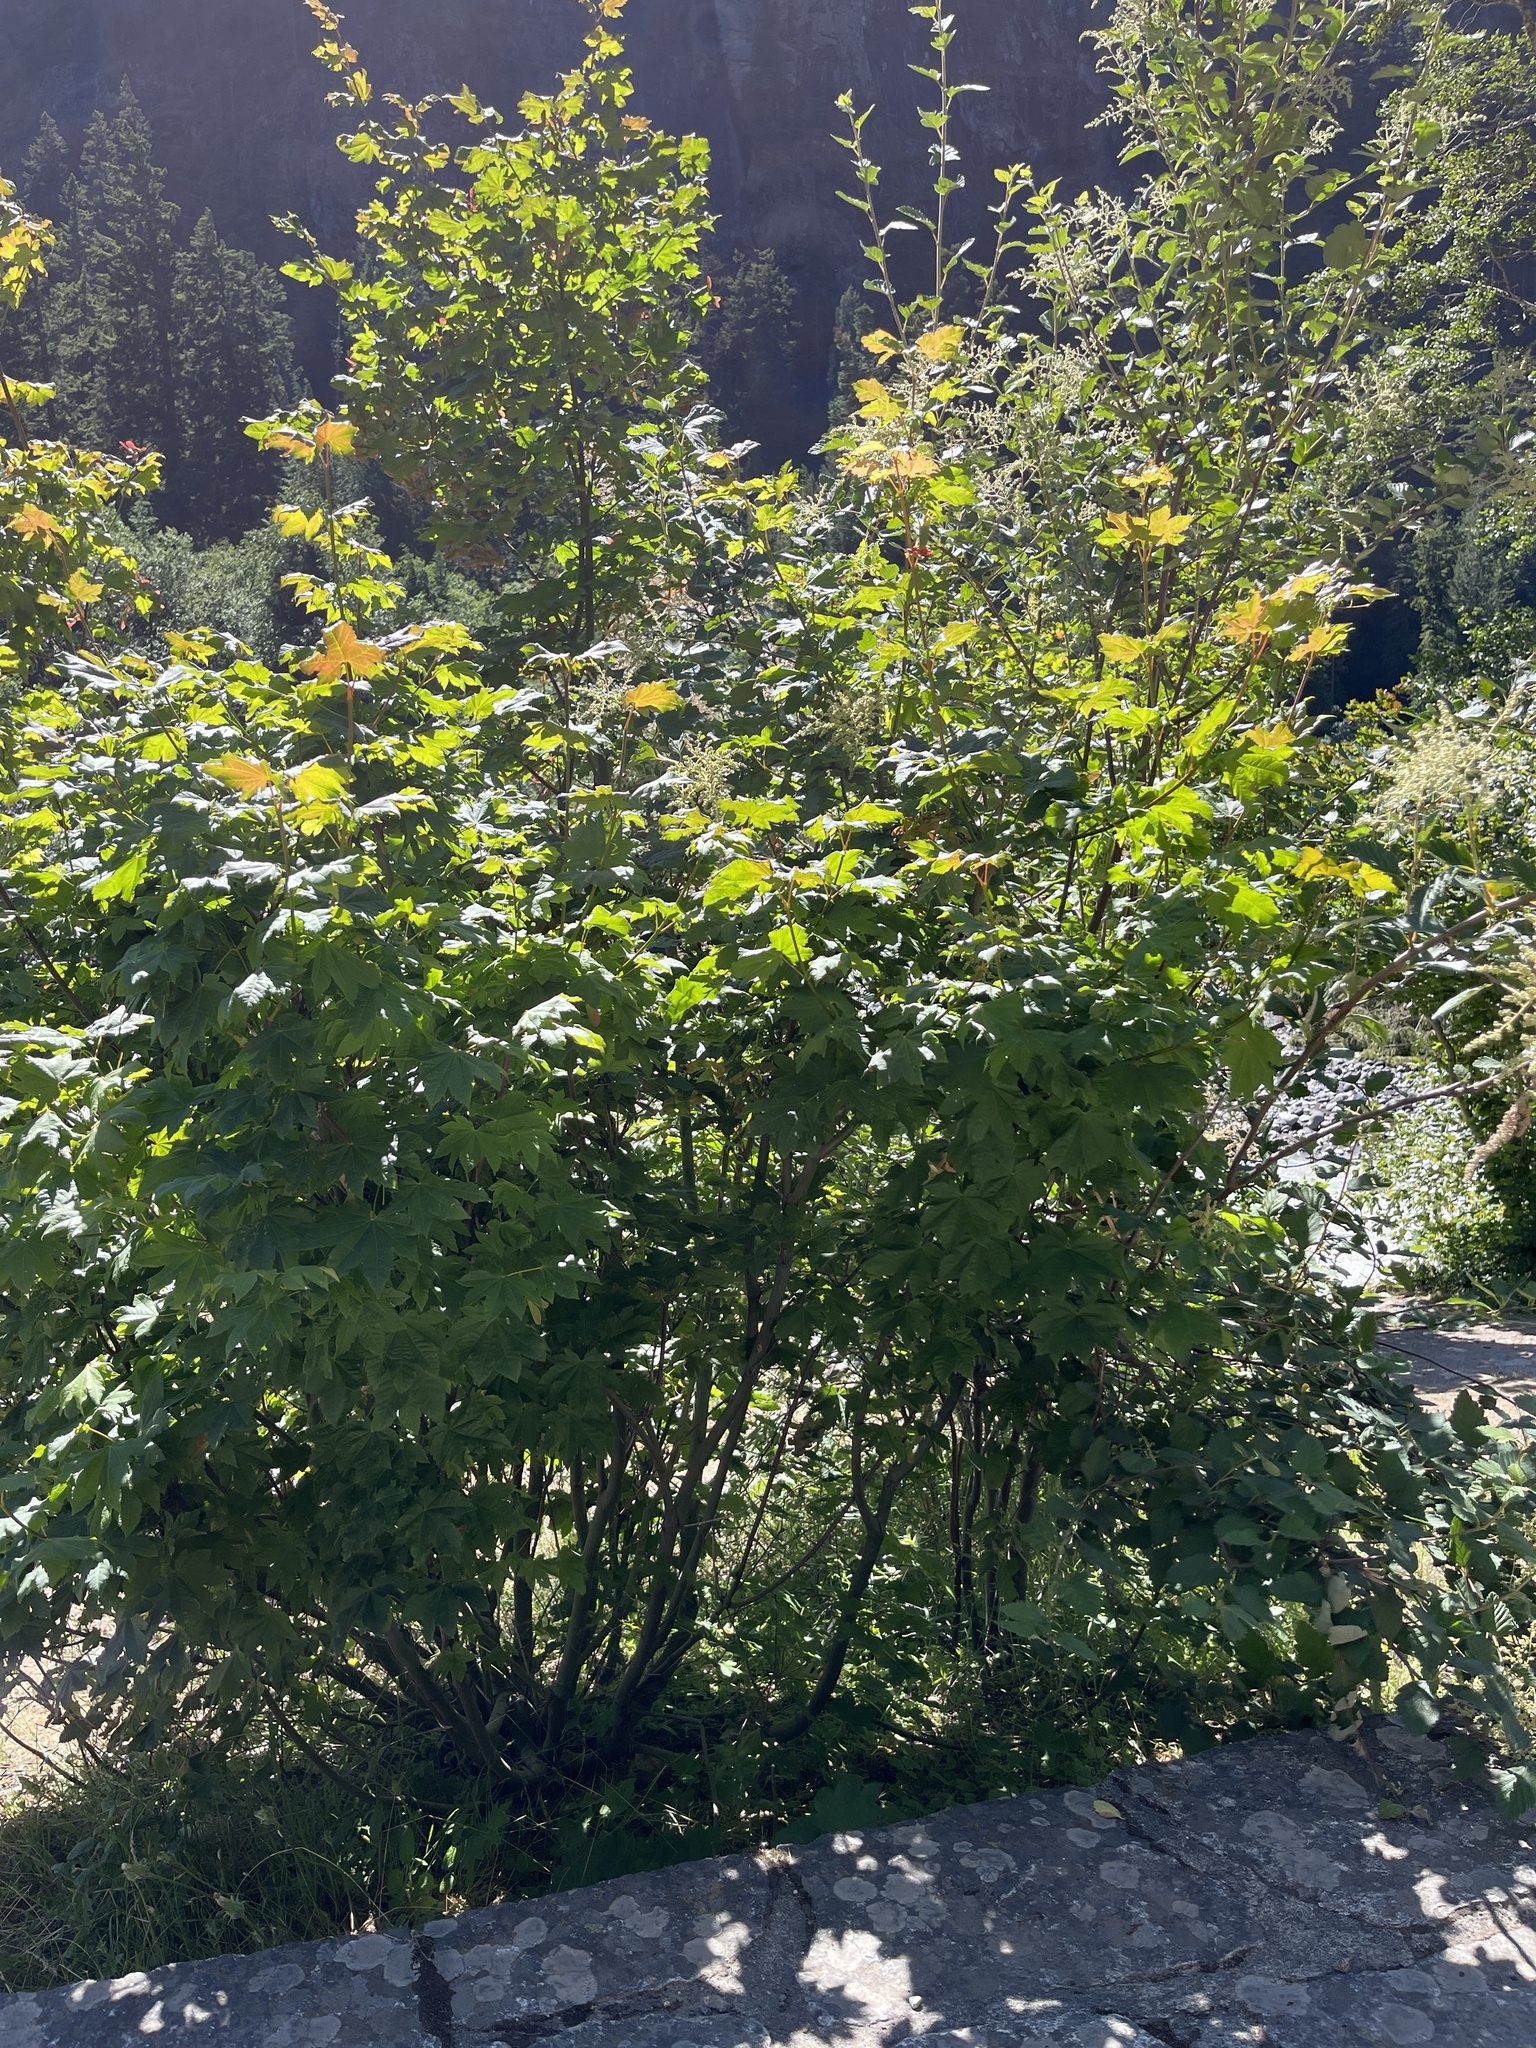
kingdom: Plantae
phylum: Tracheophyta
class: Magnoliopsida
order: Sapindales
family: Sapindaceae
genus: Acer
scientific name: Acer circinatum
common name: Vine maple
